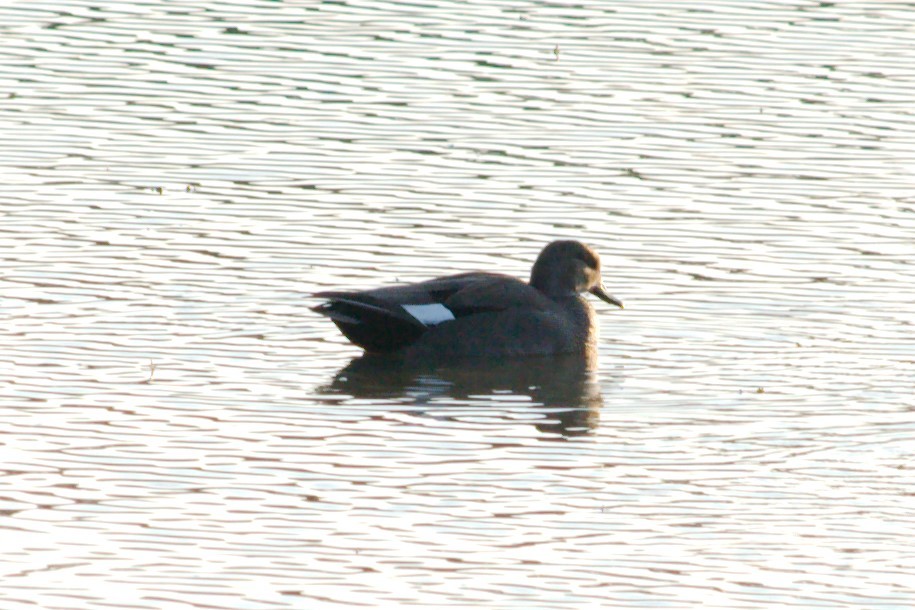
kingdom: Animalia
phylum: Chordata
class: Aves
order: Anseriformes
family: Anatidae
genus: Mareca
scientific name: Mareca strepera
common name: Gadwall
